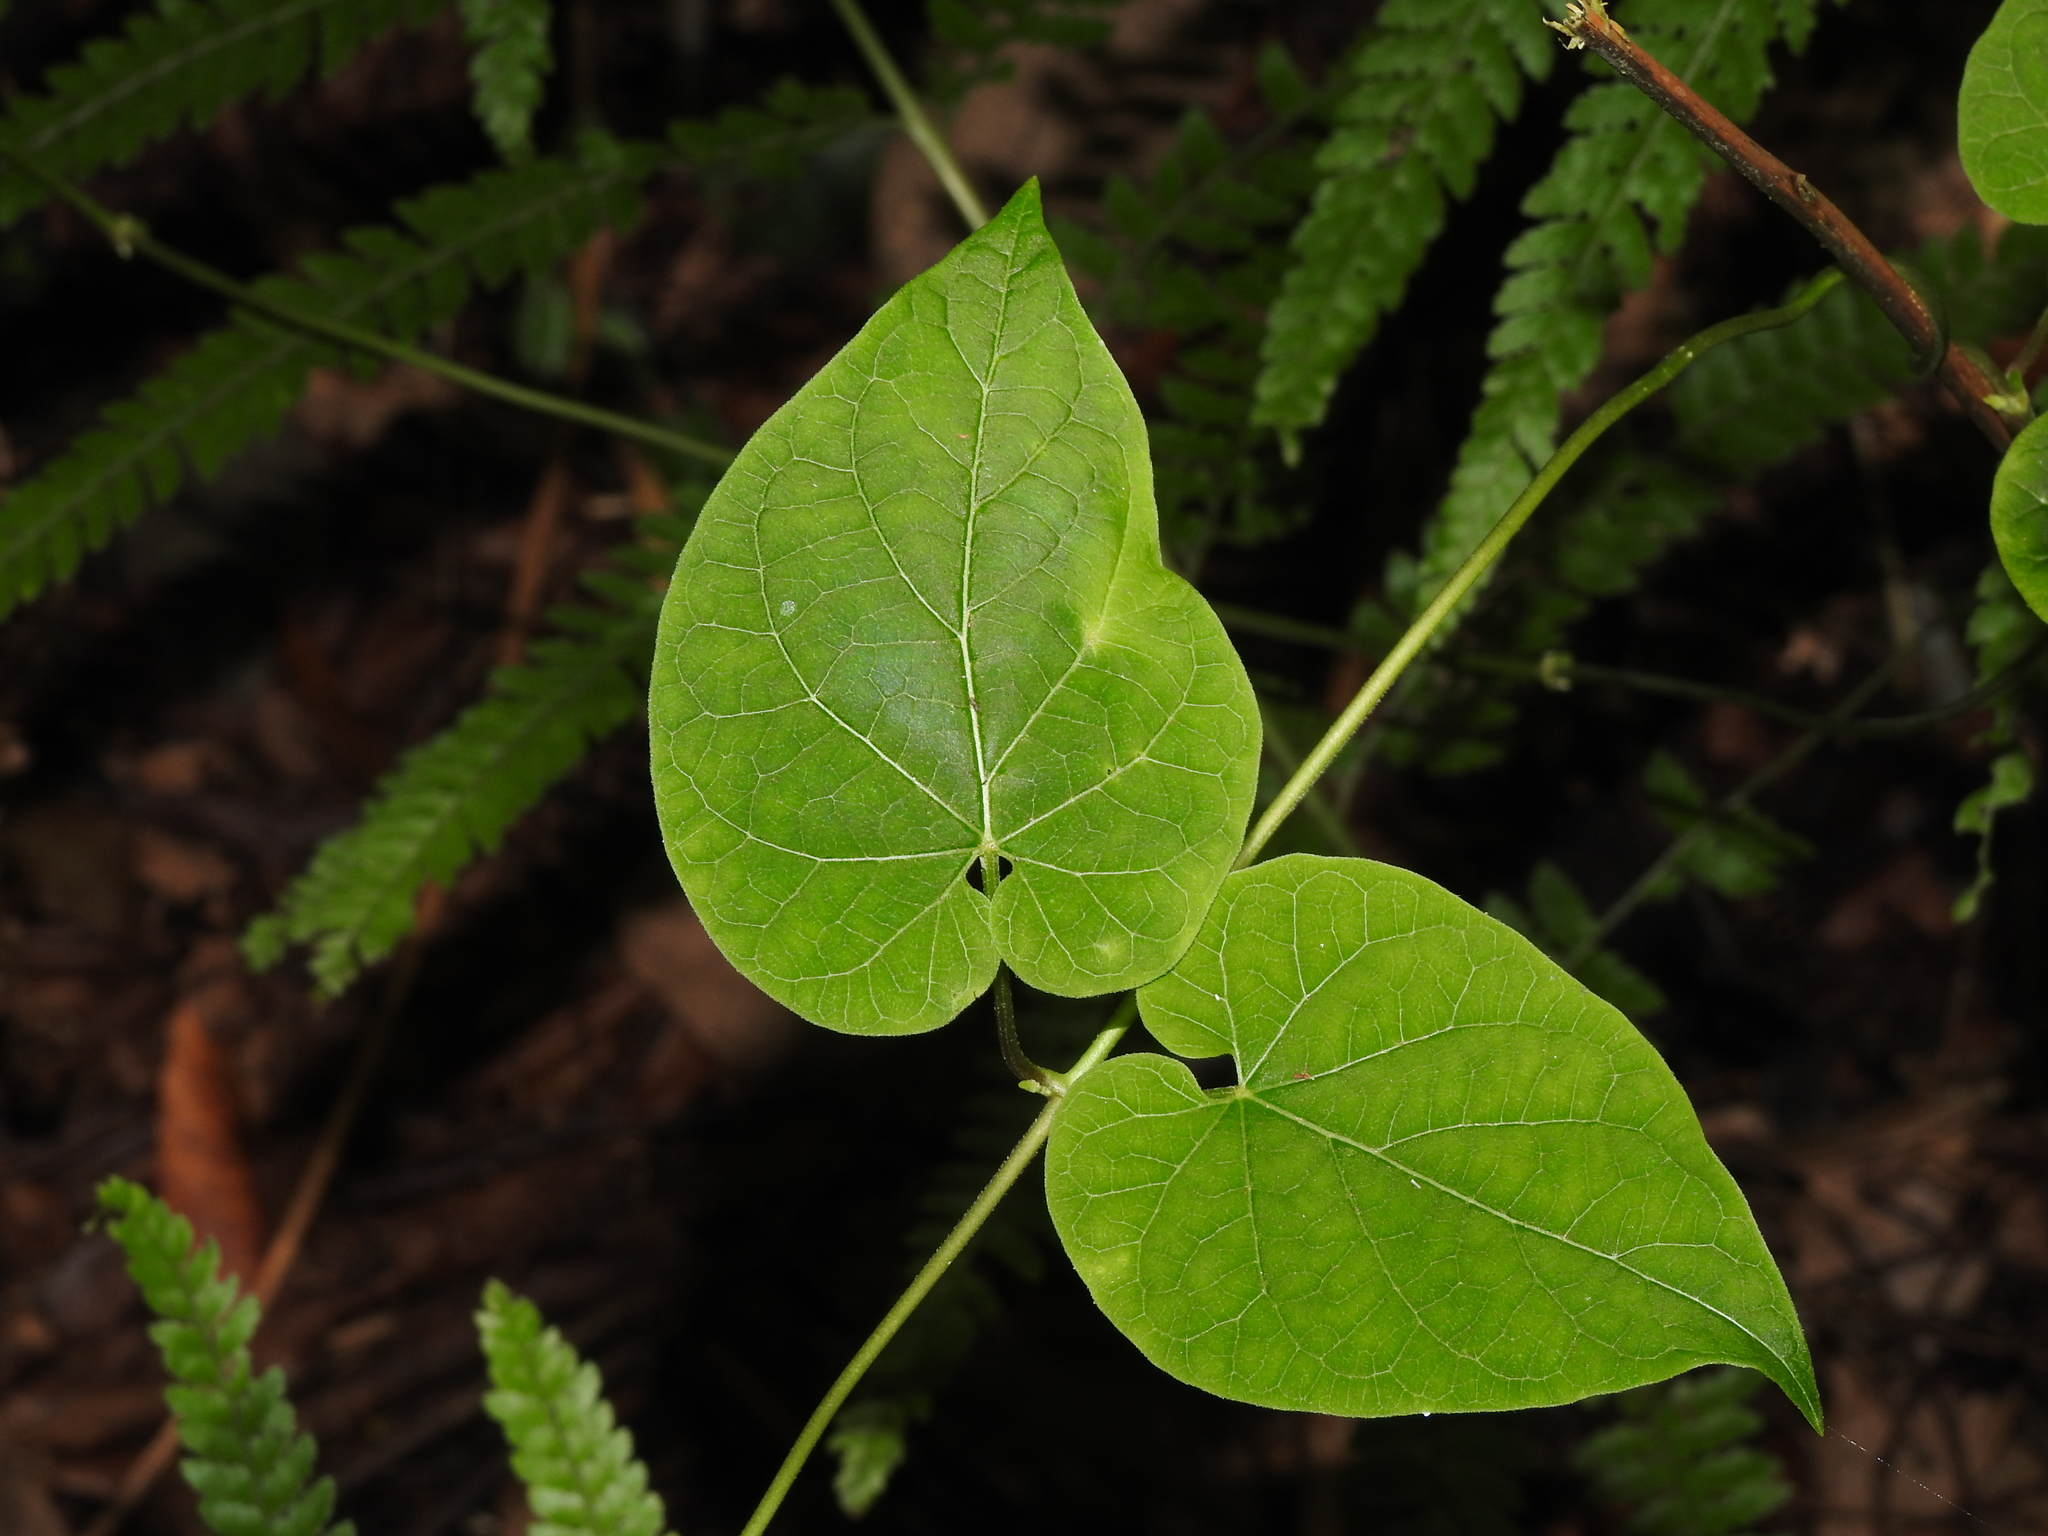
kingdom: Plantae
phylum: Tracheophyta
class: Magnoliopsida
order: Gentianales
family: Apocynaceae
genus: Cynanchum
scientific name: Cynanchum boudieri
